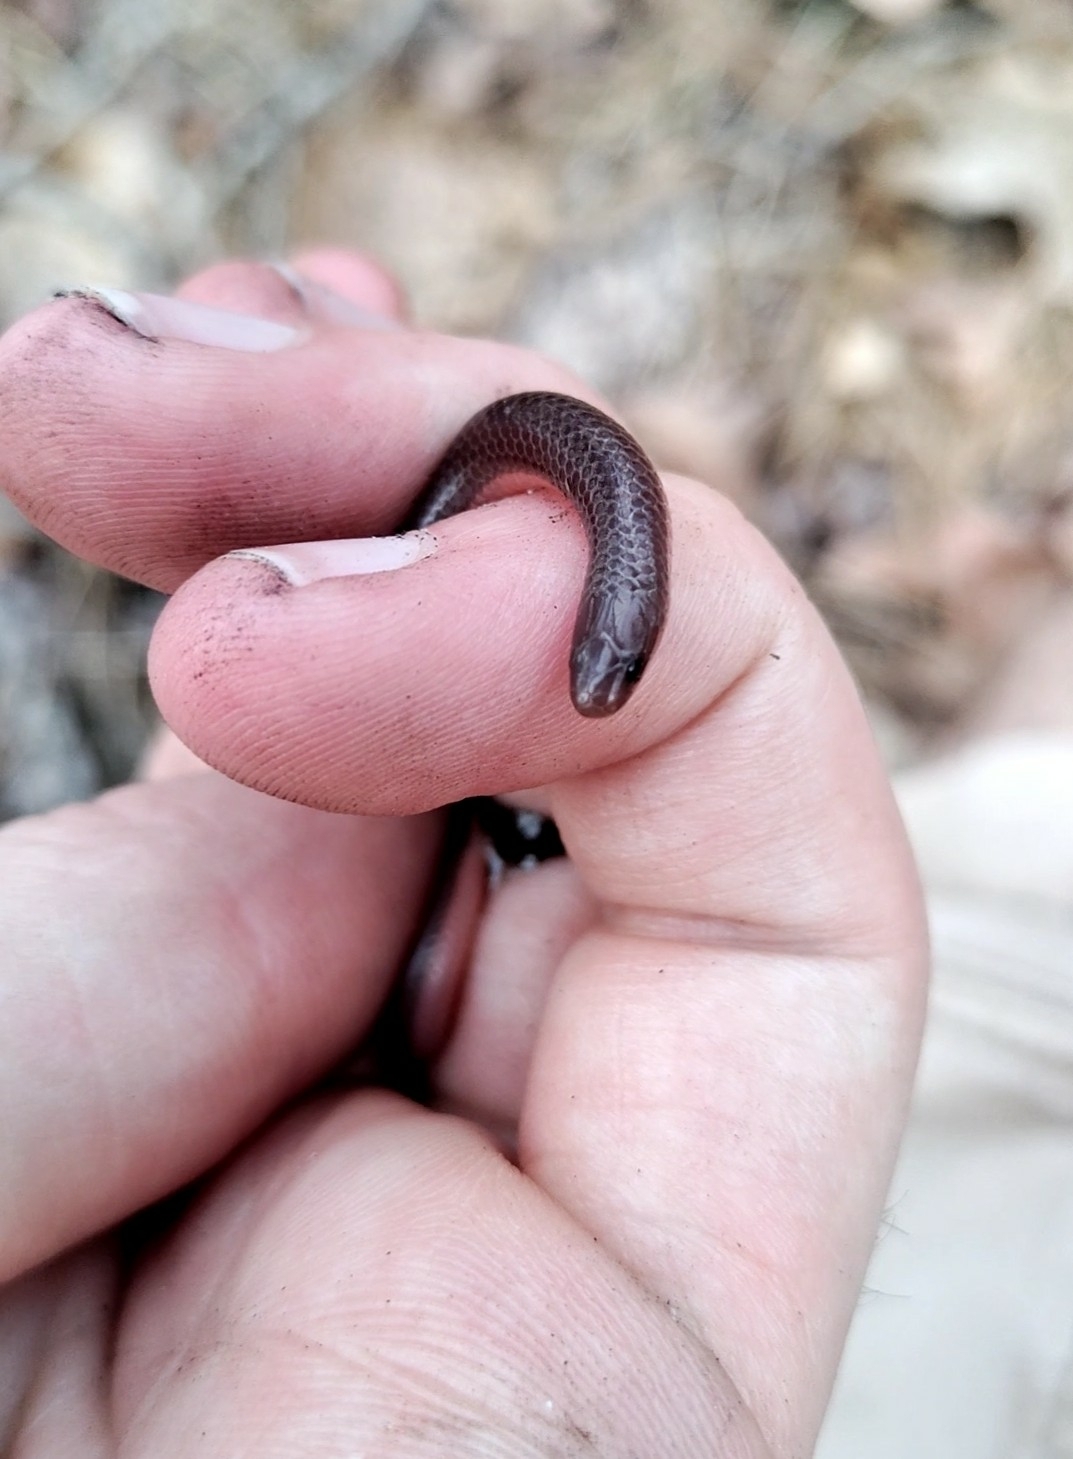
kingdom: Animalia
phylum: Chordata
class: Squamata
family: Colubridae
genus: Carphophis
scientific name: Carphophis amoenus
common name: Eastern worm snake
